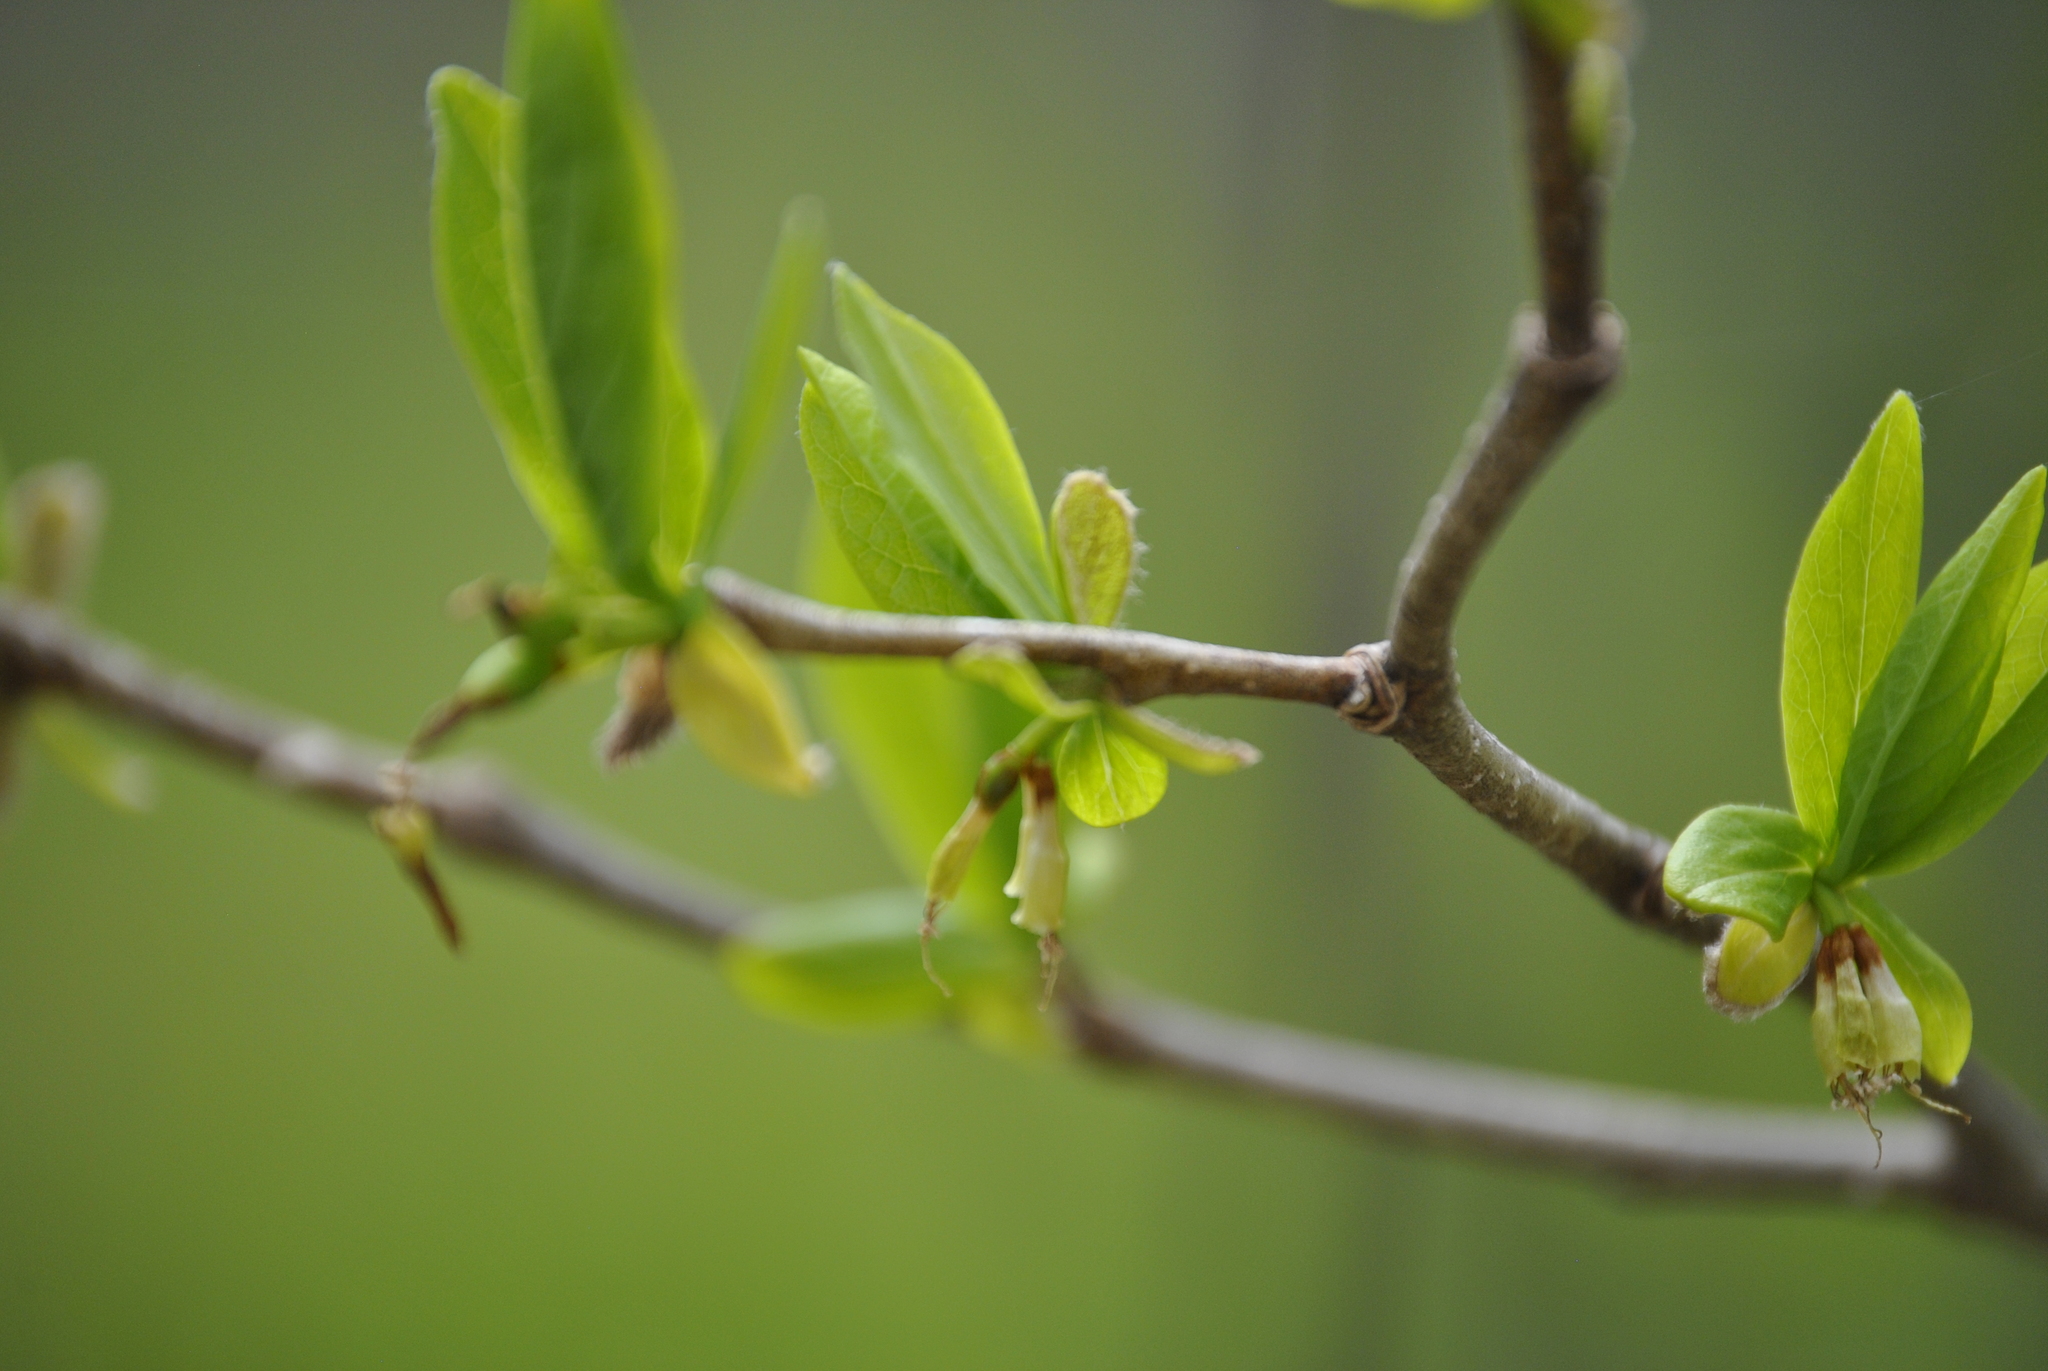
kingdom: Plantae
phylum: Tracheophyta
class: Magnoliopsida
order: Malvales
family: Thymelaeaceae
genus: Dirca
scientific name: Dirca palustris
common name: Leatherwood
